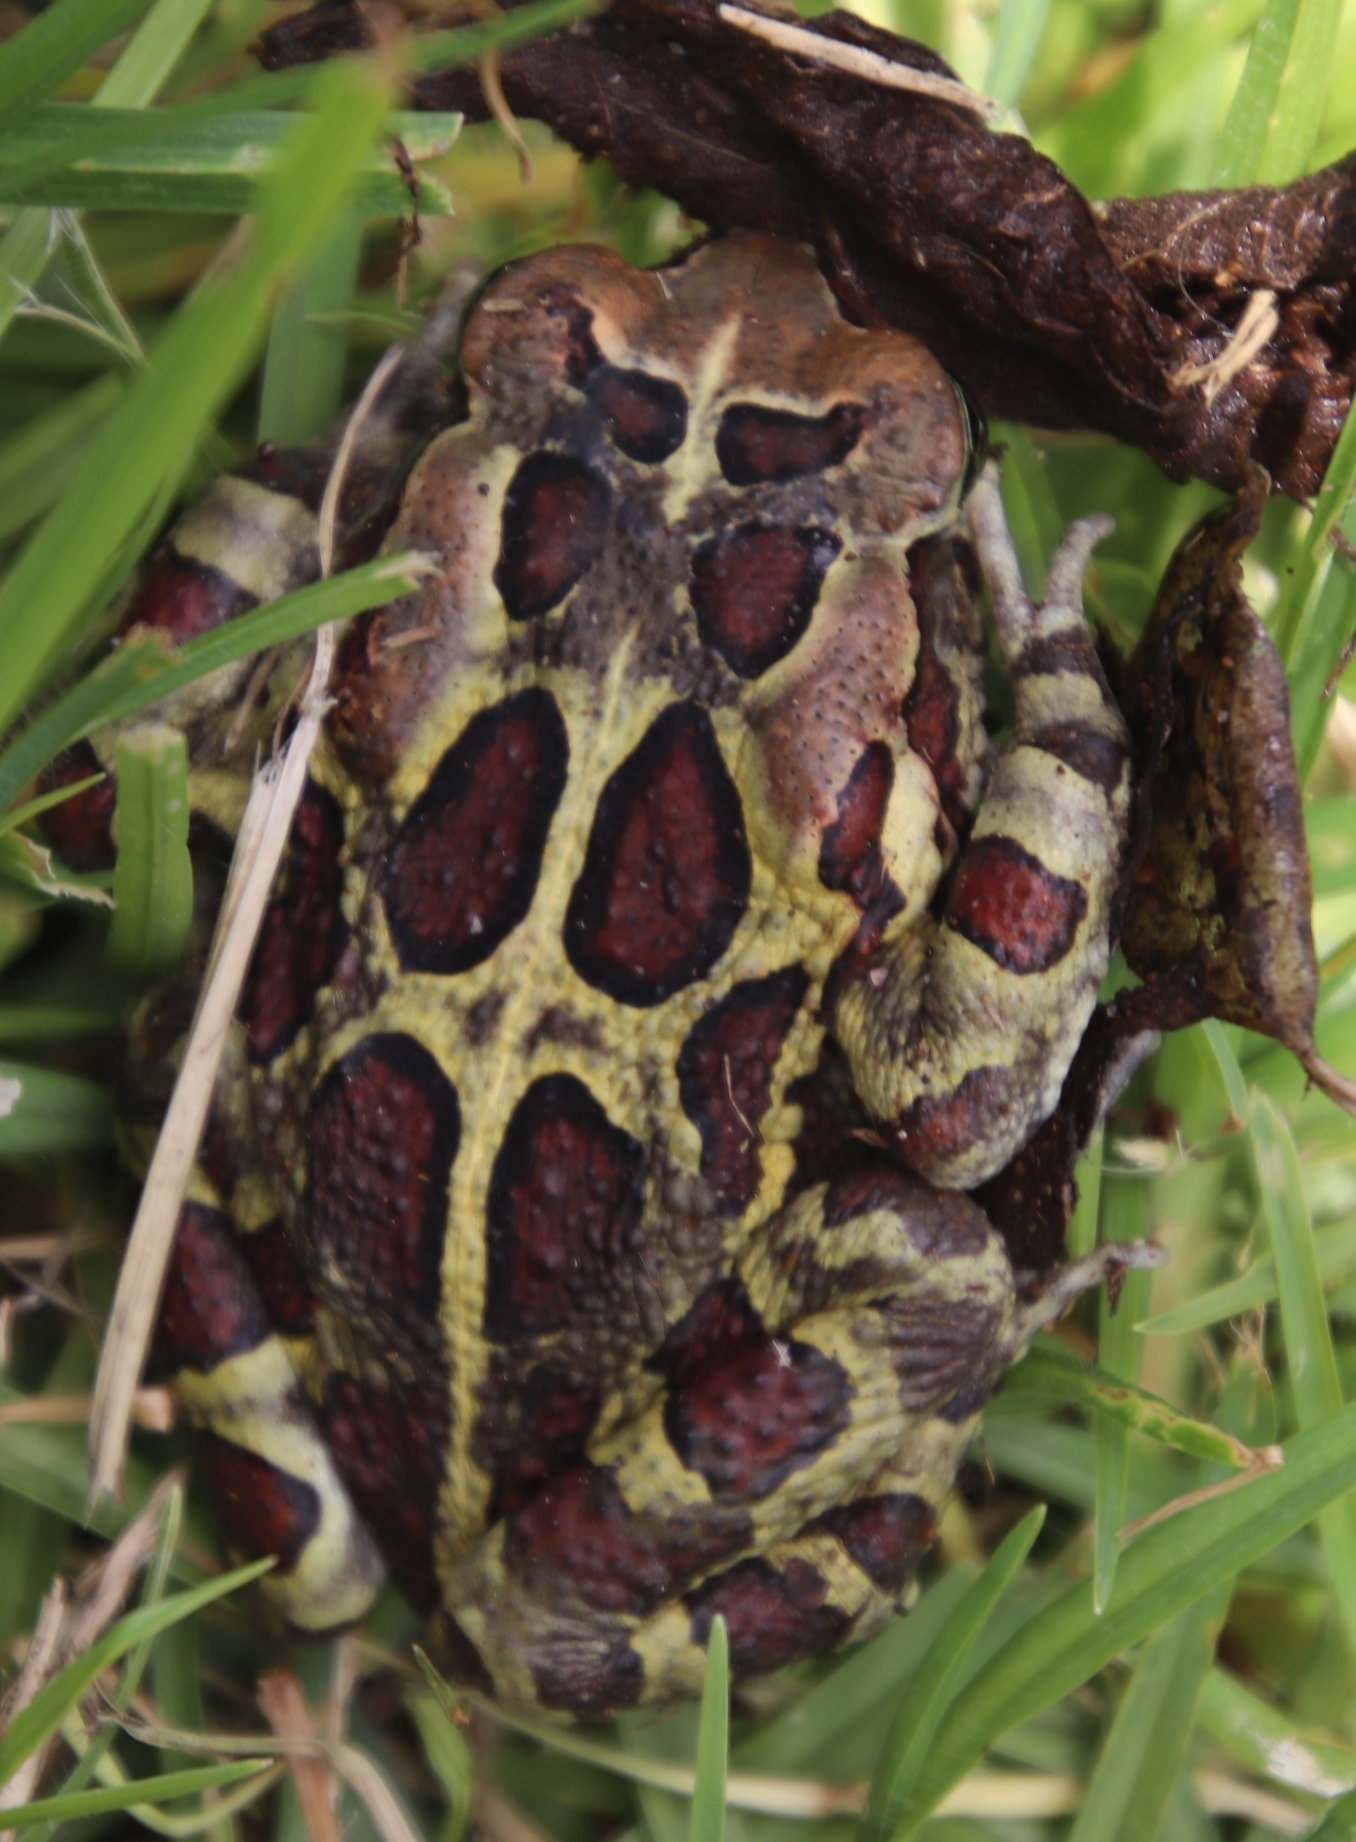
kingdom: Animalia
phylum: Chordata
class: Amphibia
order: Anura
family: Bufonidae
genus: Sclerophrys
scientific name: Sclerophrys pantherina
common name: Panther toad
